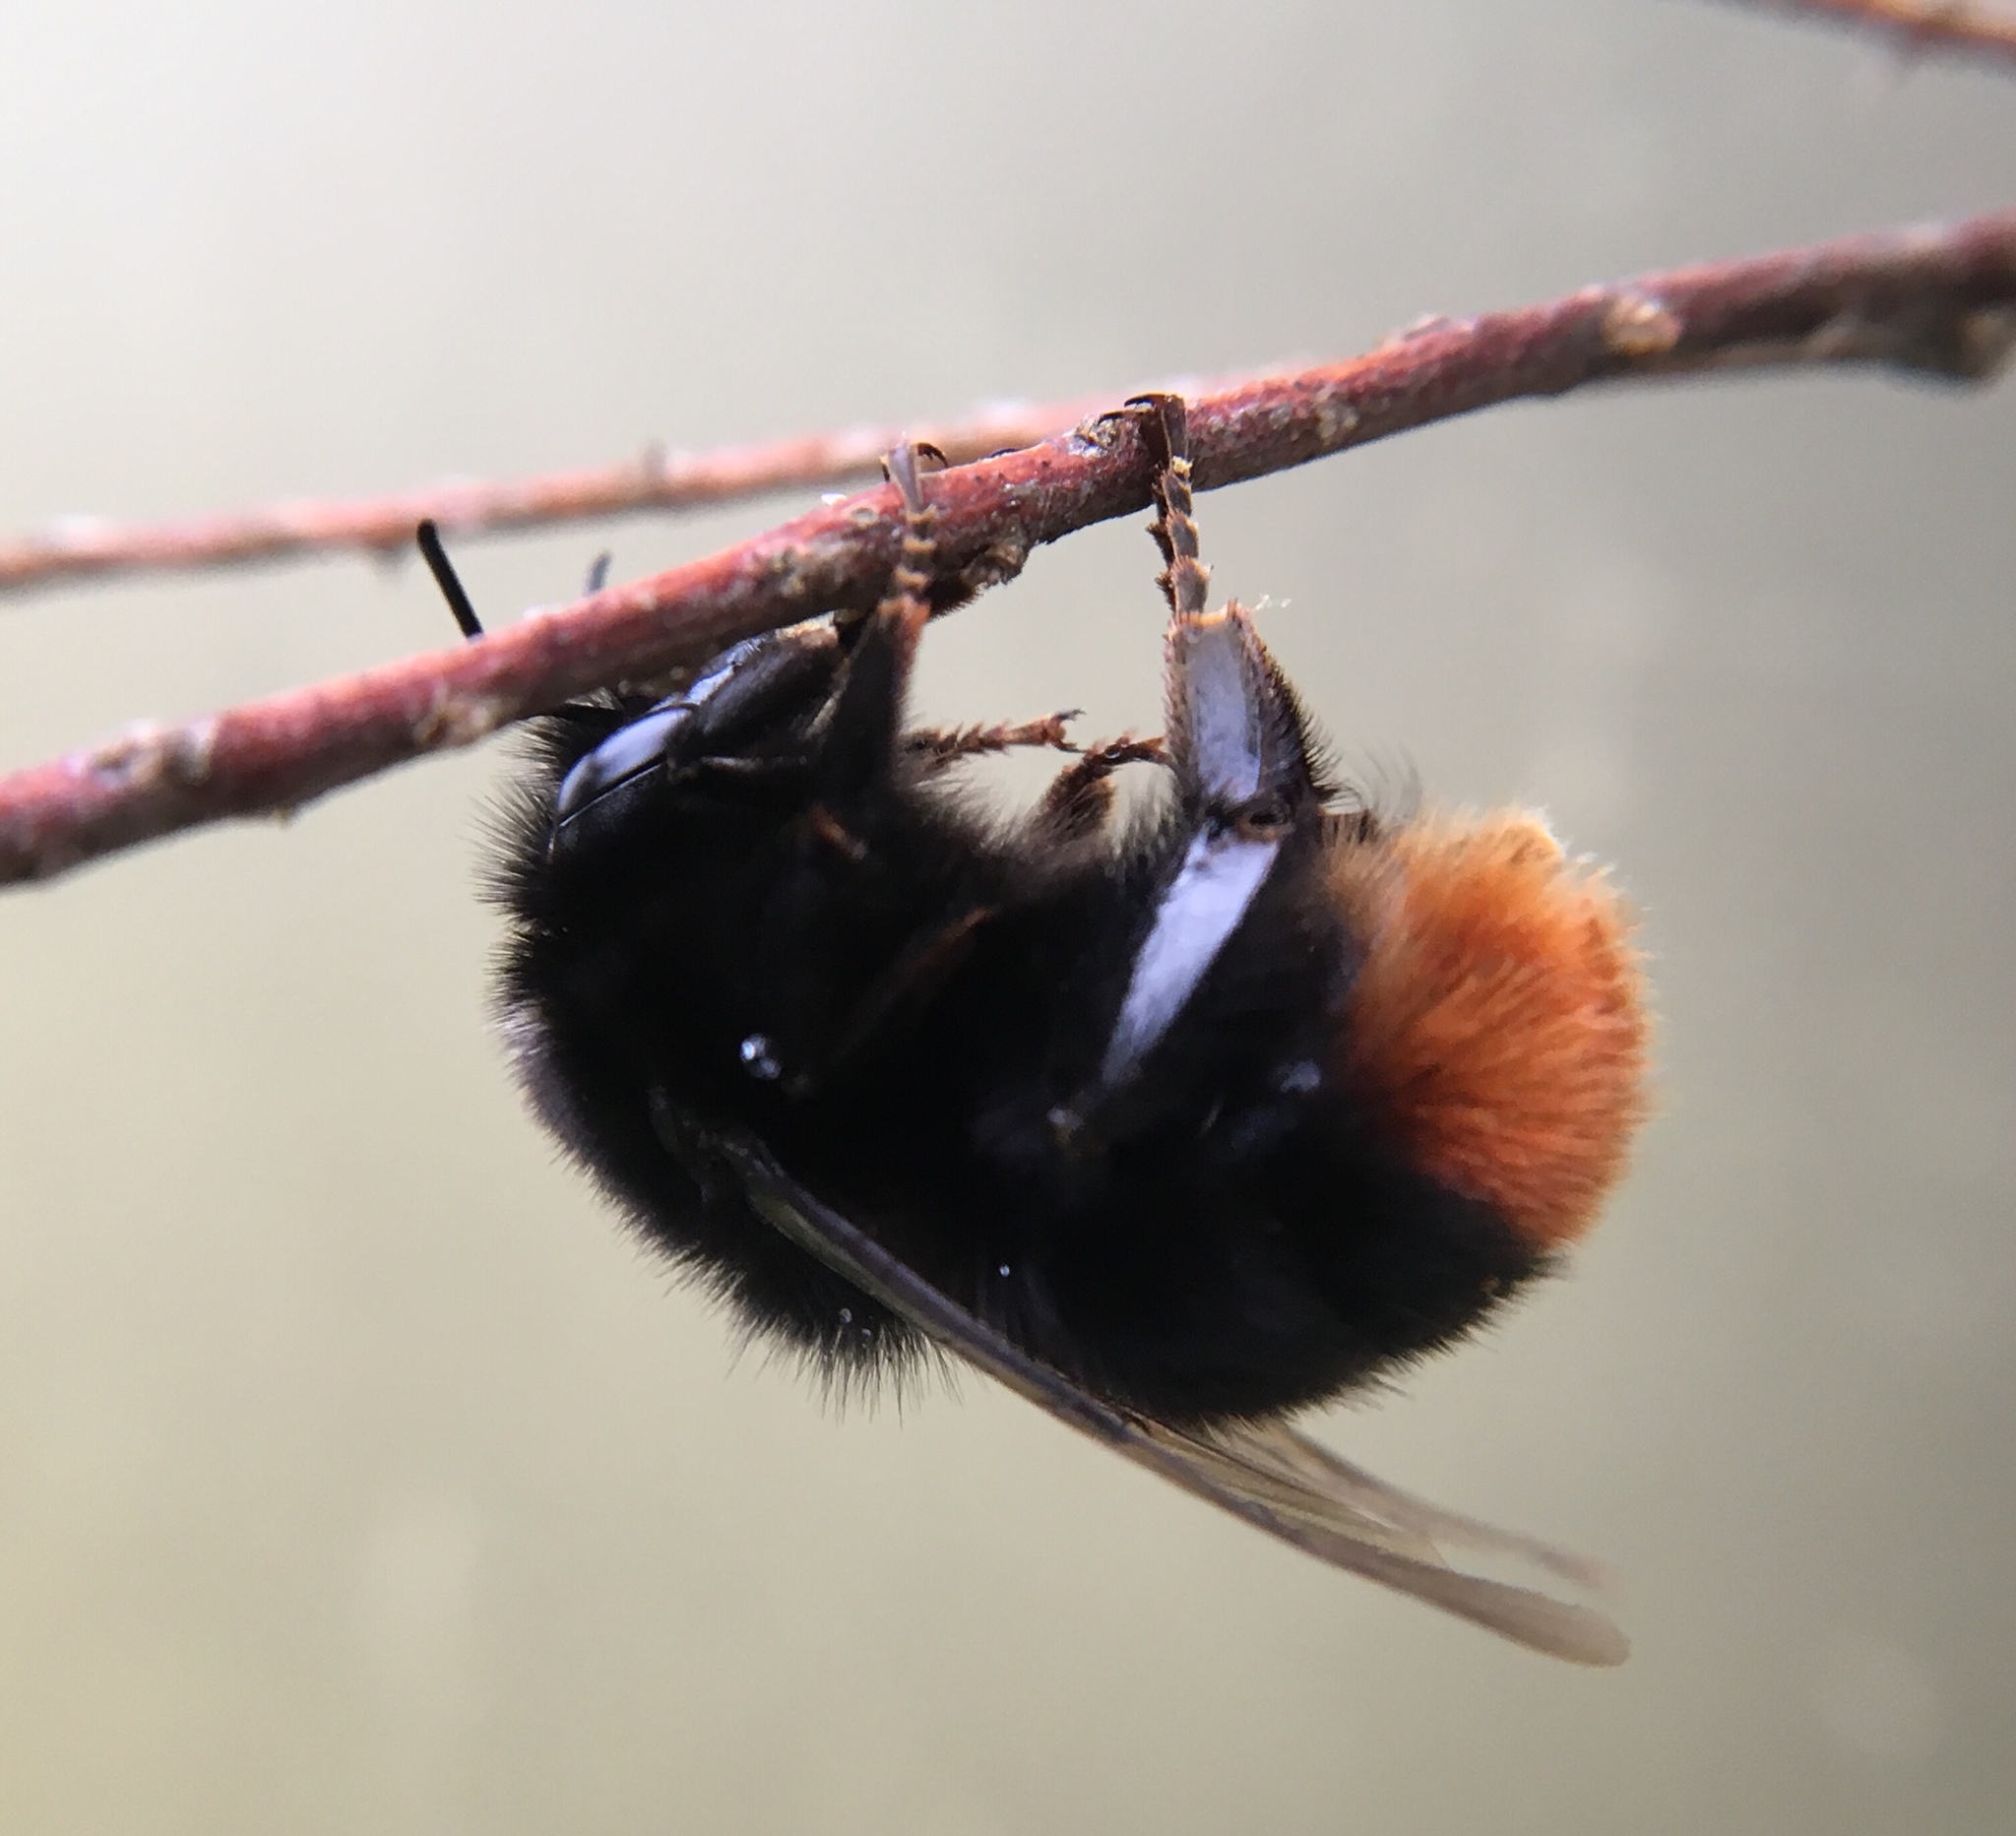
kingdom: Animalia
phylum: Arthropoda
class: Insecta
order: Hymenoptera
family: Apidae
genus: Bombus
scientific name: Bombus lapidarius
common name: Large red-tailed humble-bee
